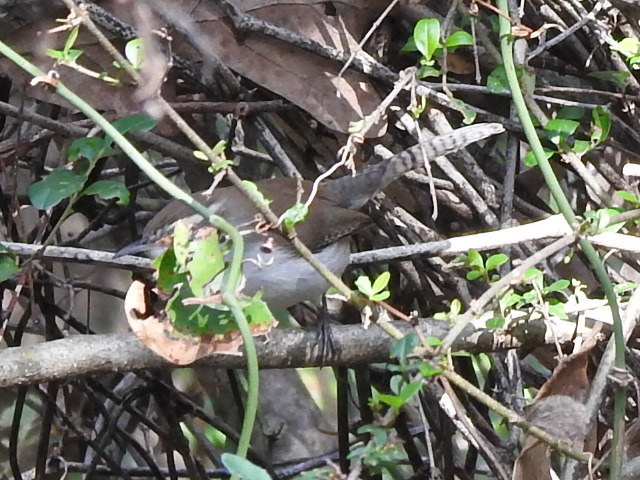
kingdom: Animalia
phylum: Chordata
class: Aves
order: Passeriformes
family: Troglodytidae
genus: Thryomanes
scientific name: Thryomanes bewickii
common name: Bewick's wren
